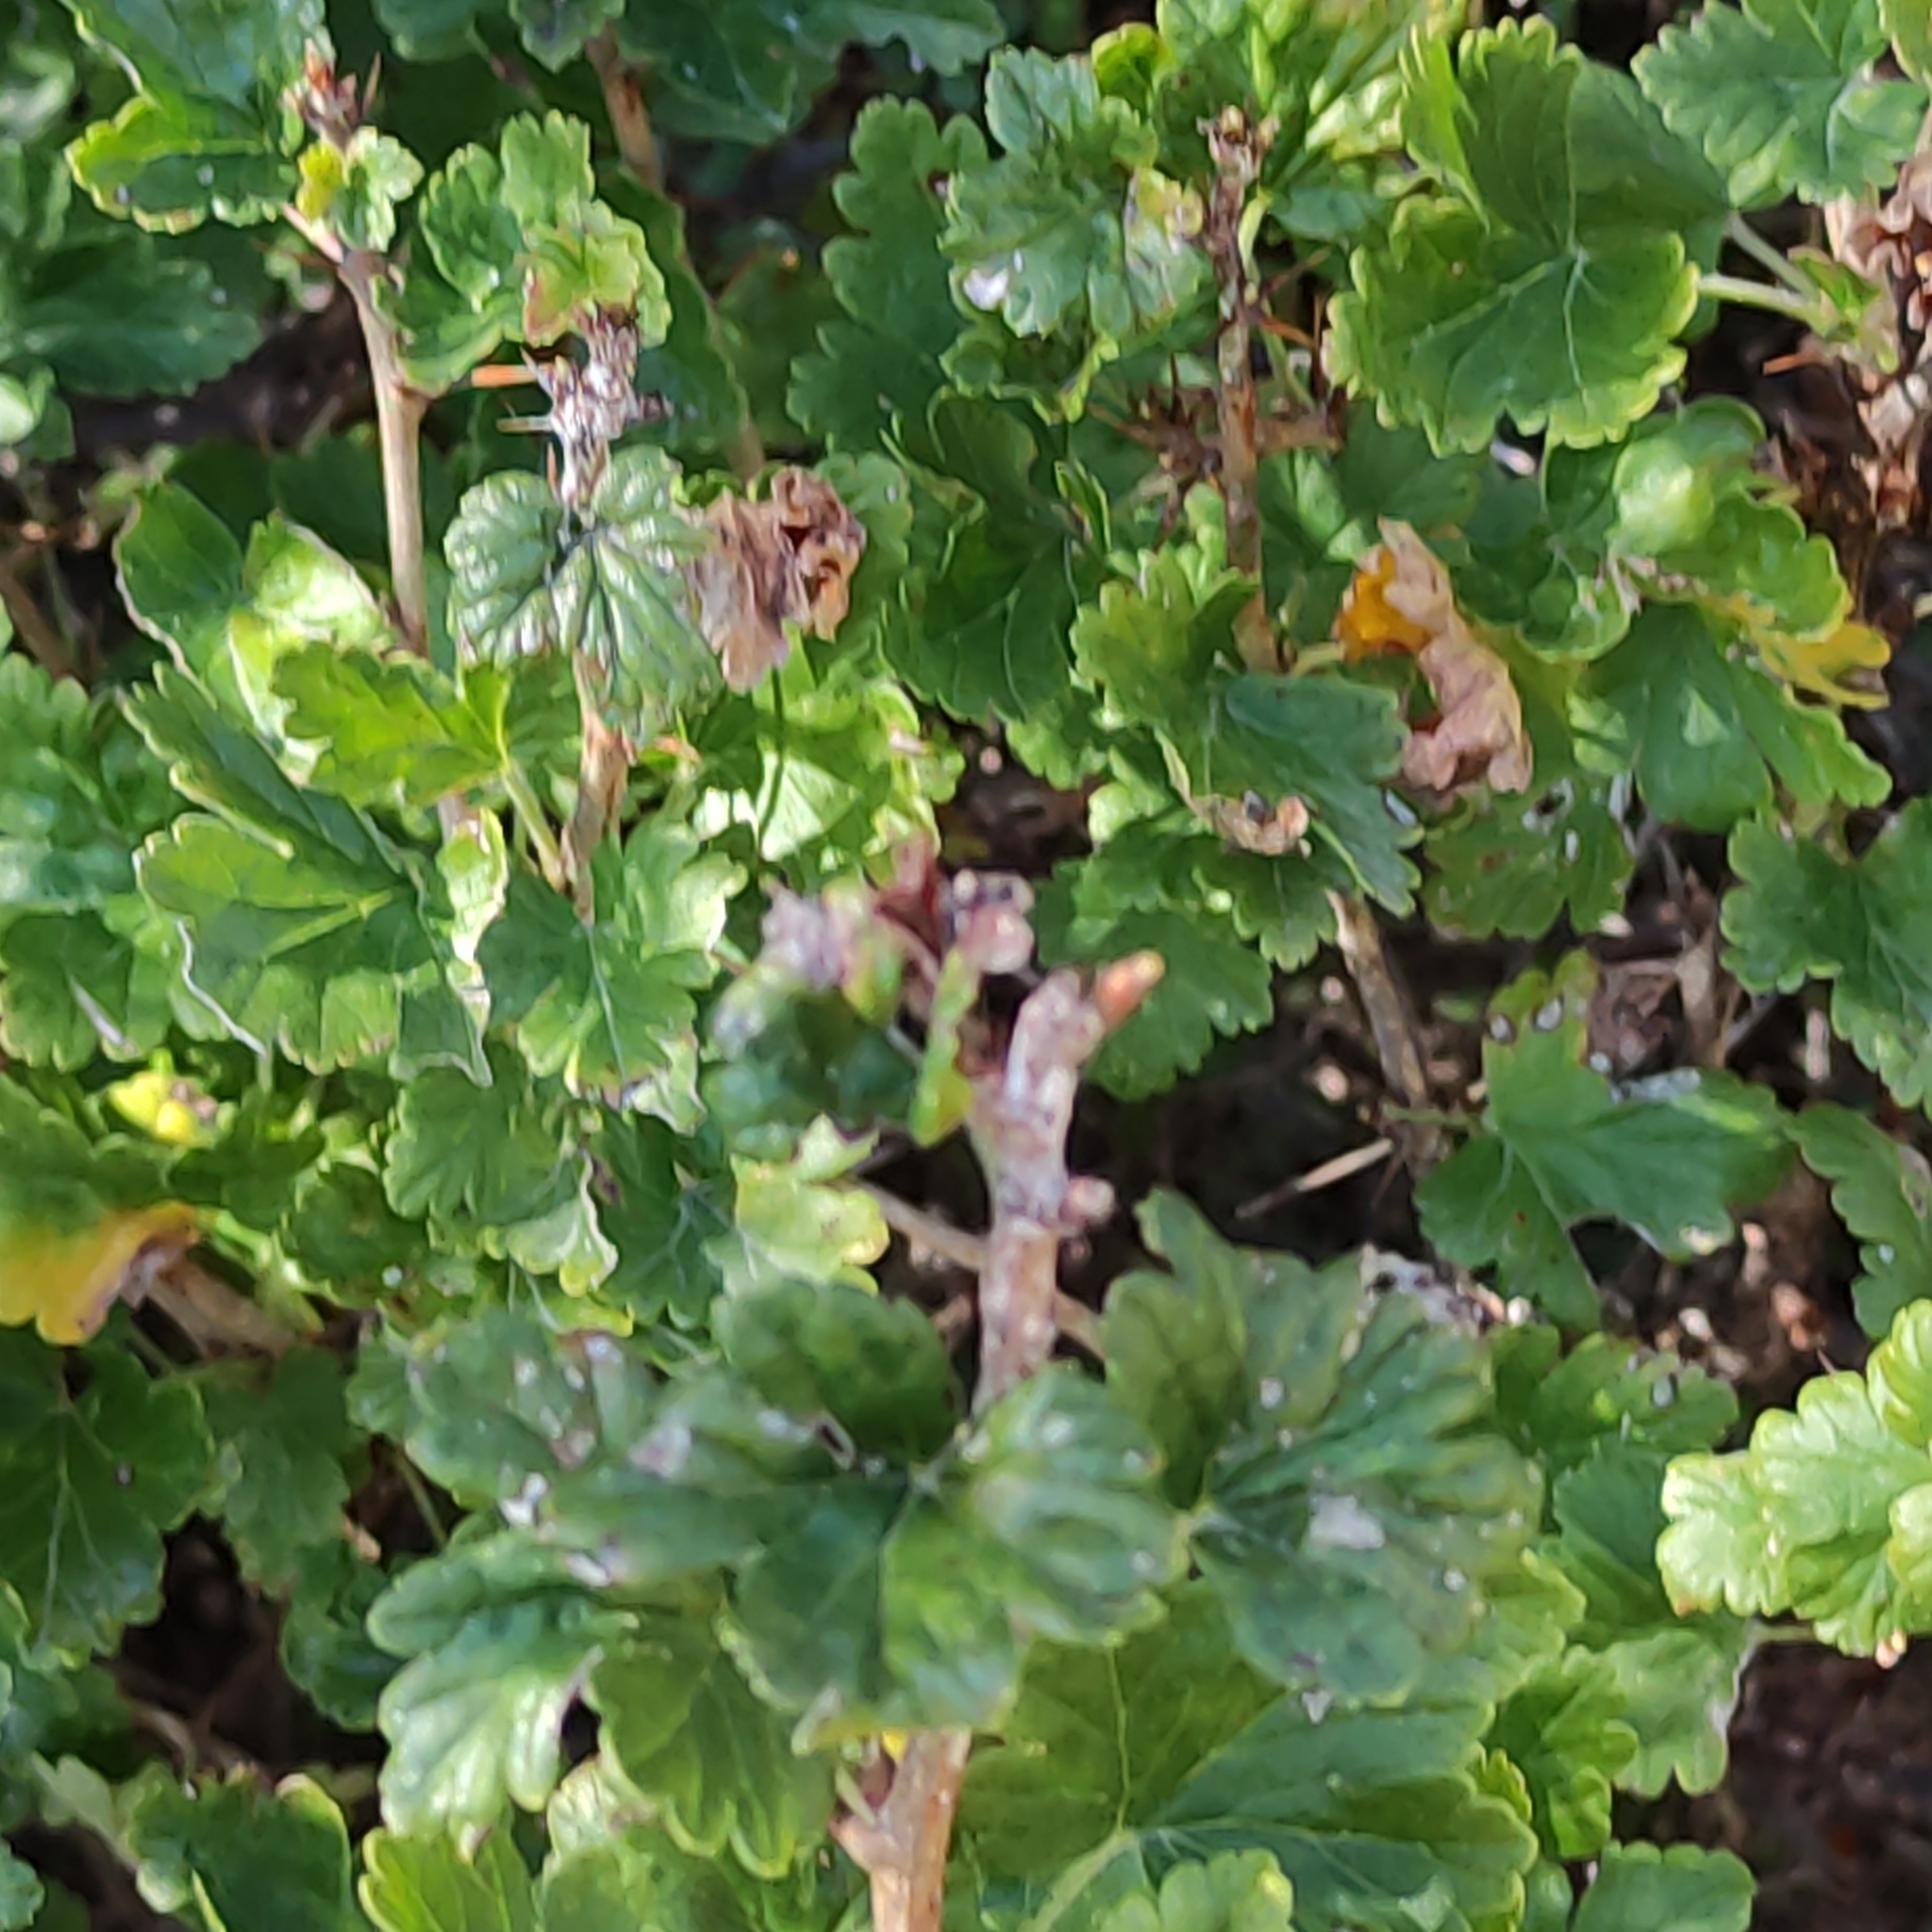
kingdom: Plantae
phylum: Tracheophyta
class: Magnoliopsida
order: Saxifragales
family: Grossulariaceae
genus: Ribes
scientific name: Ribes uva-crispa
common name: Gooseberry
